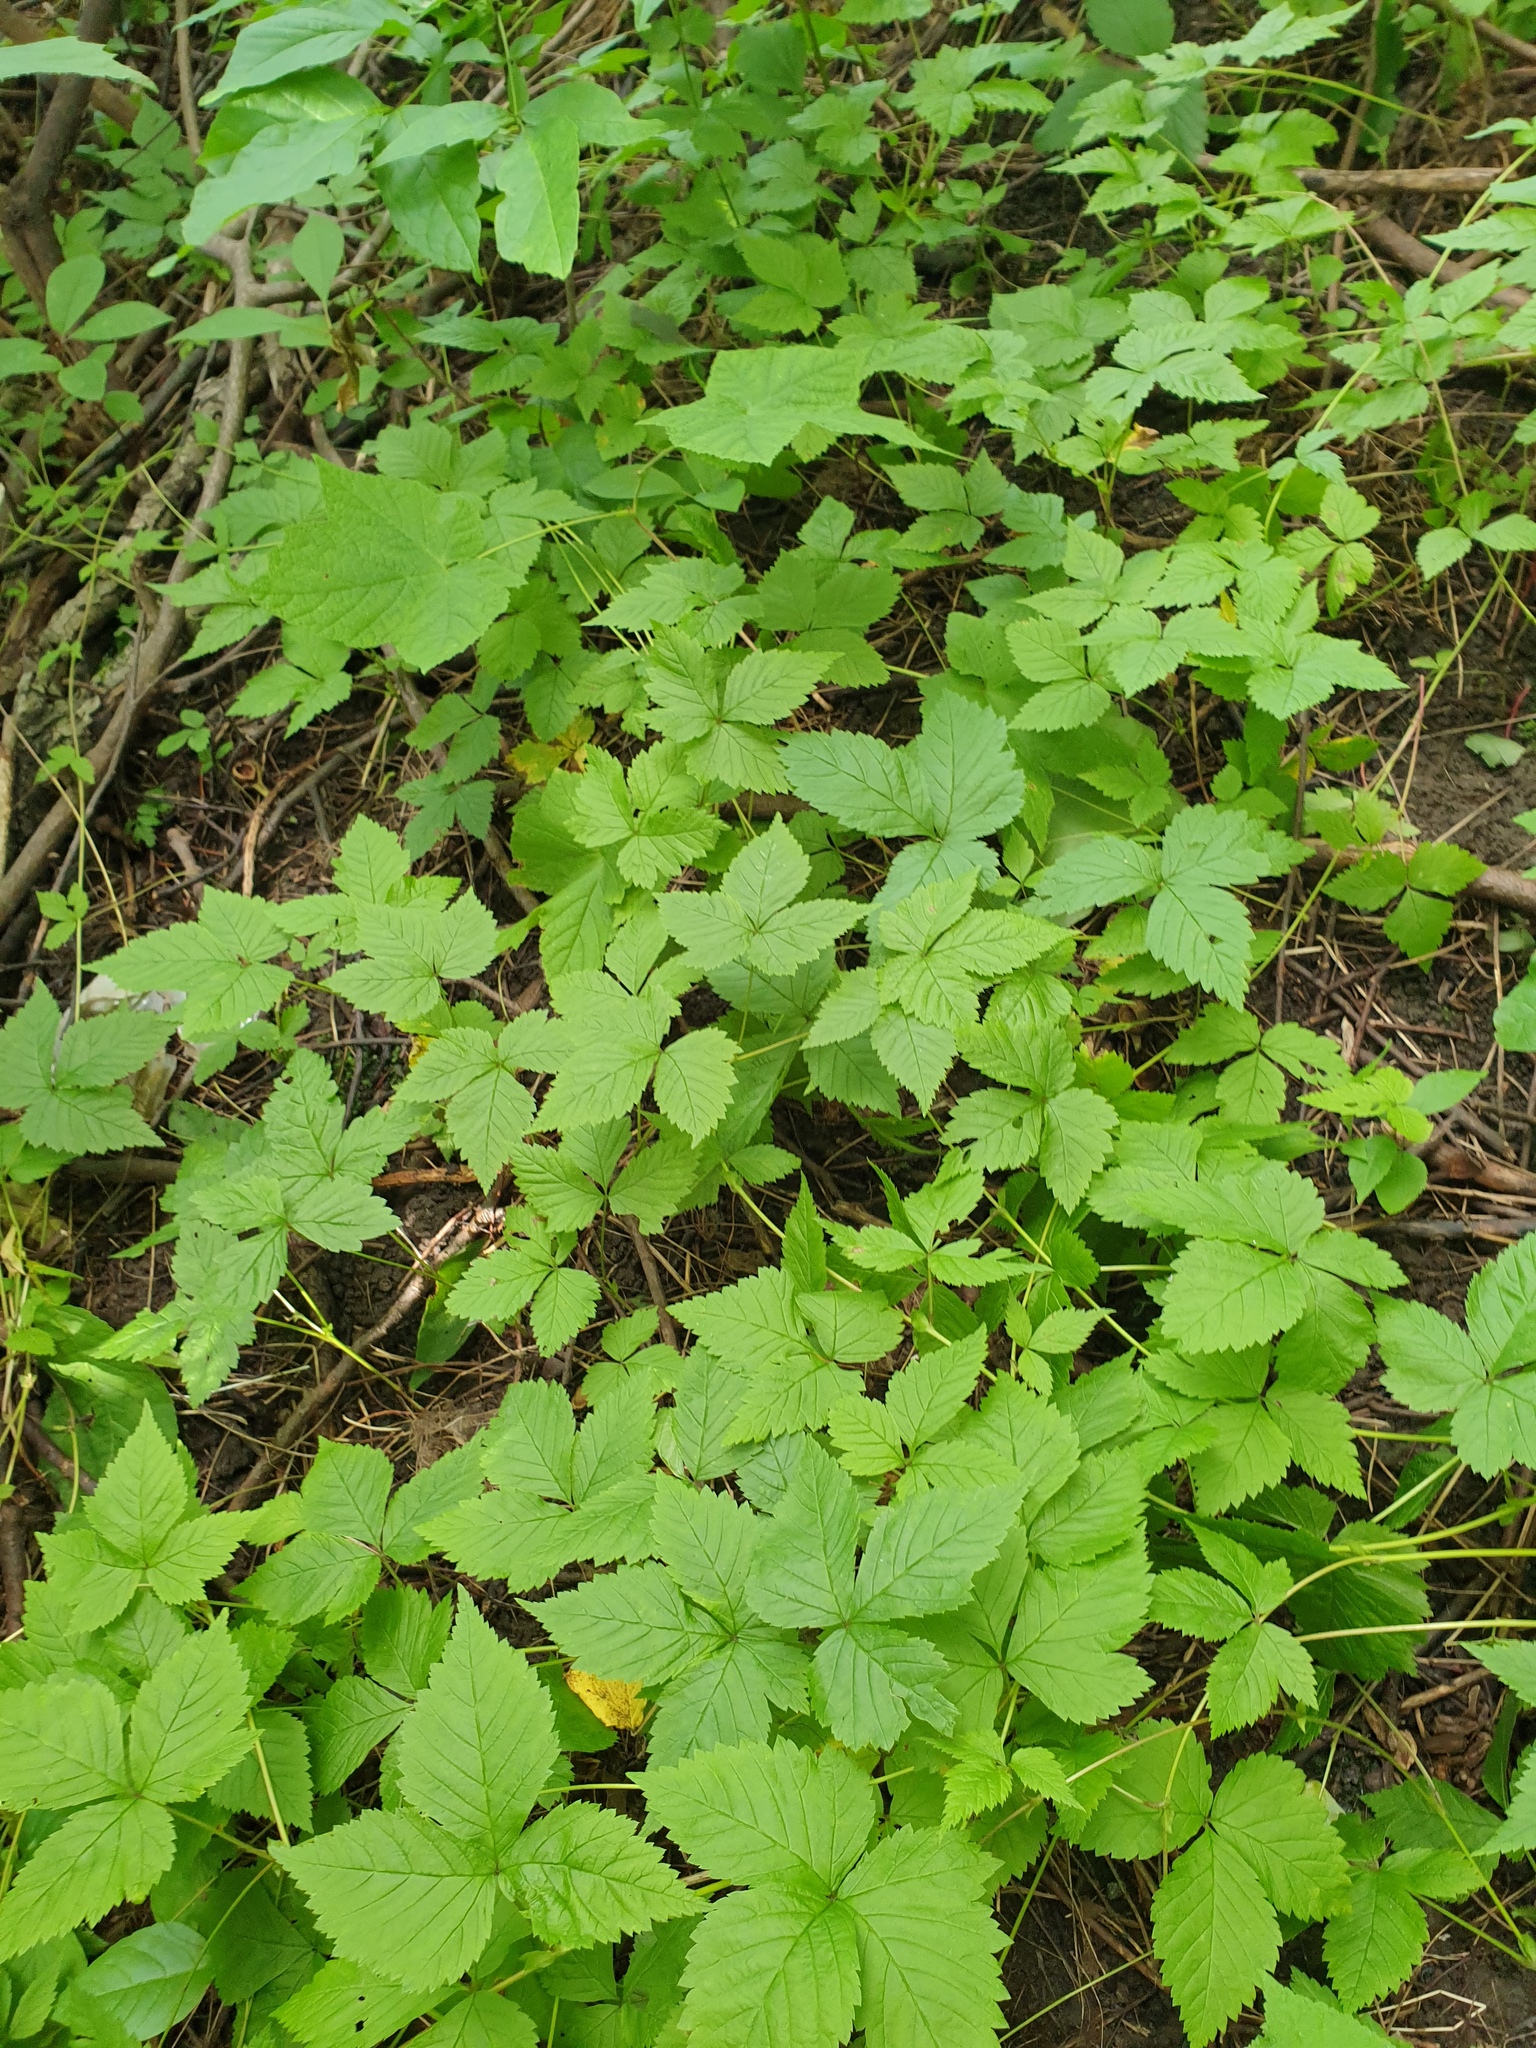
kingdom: Plantae
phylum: Tracheophyta
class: Magnoliopsida
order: Rosales
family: Rosaceae
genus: Rubus
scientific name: Rubus pubescens
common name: Dwarf raspberry
